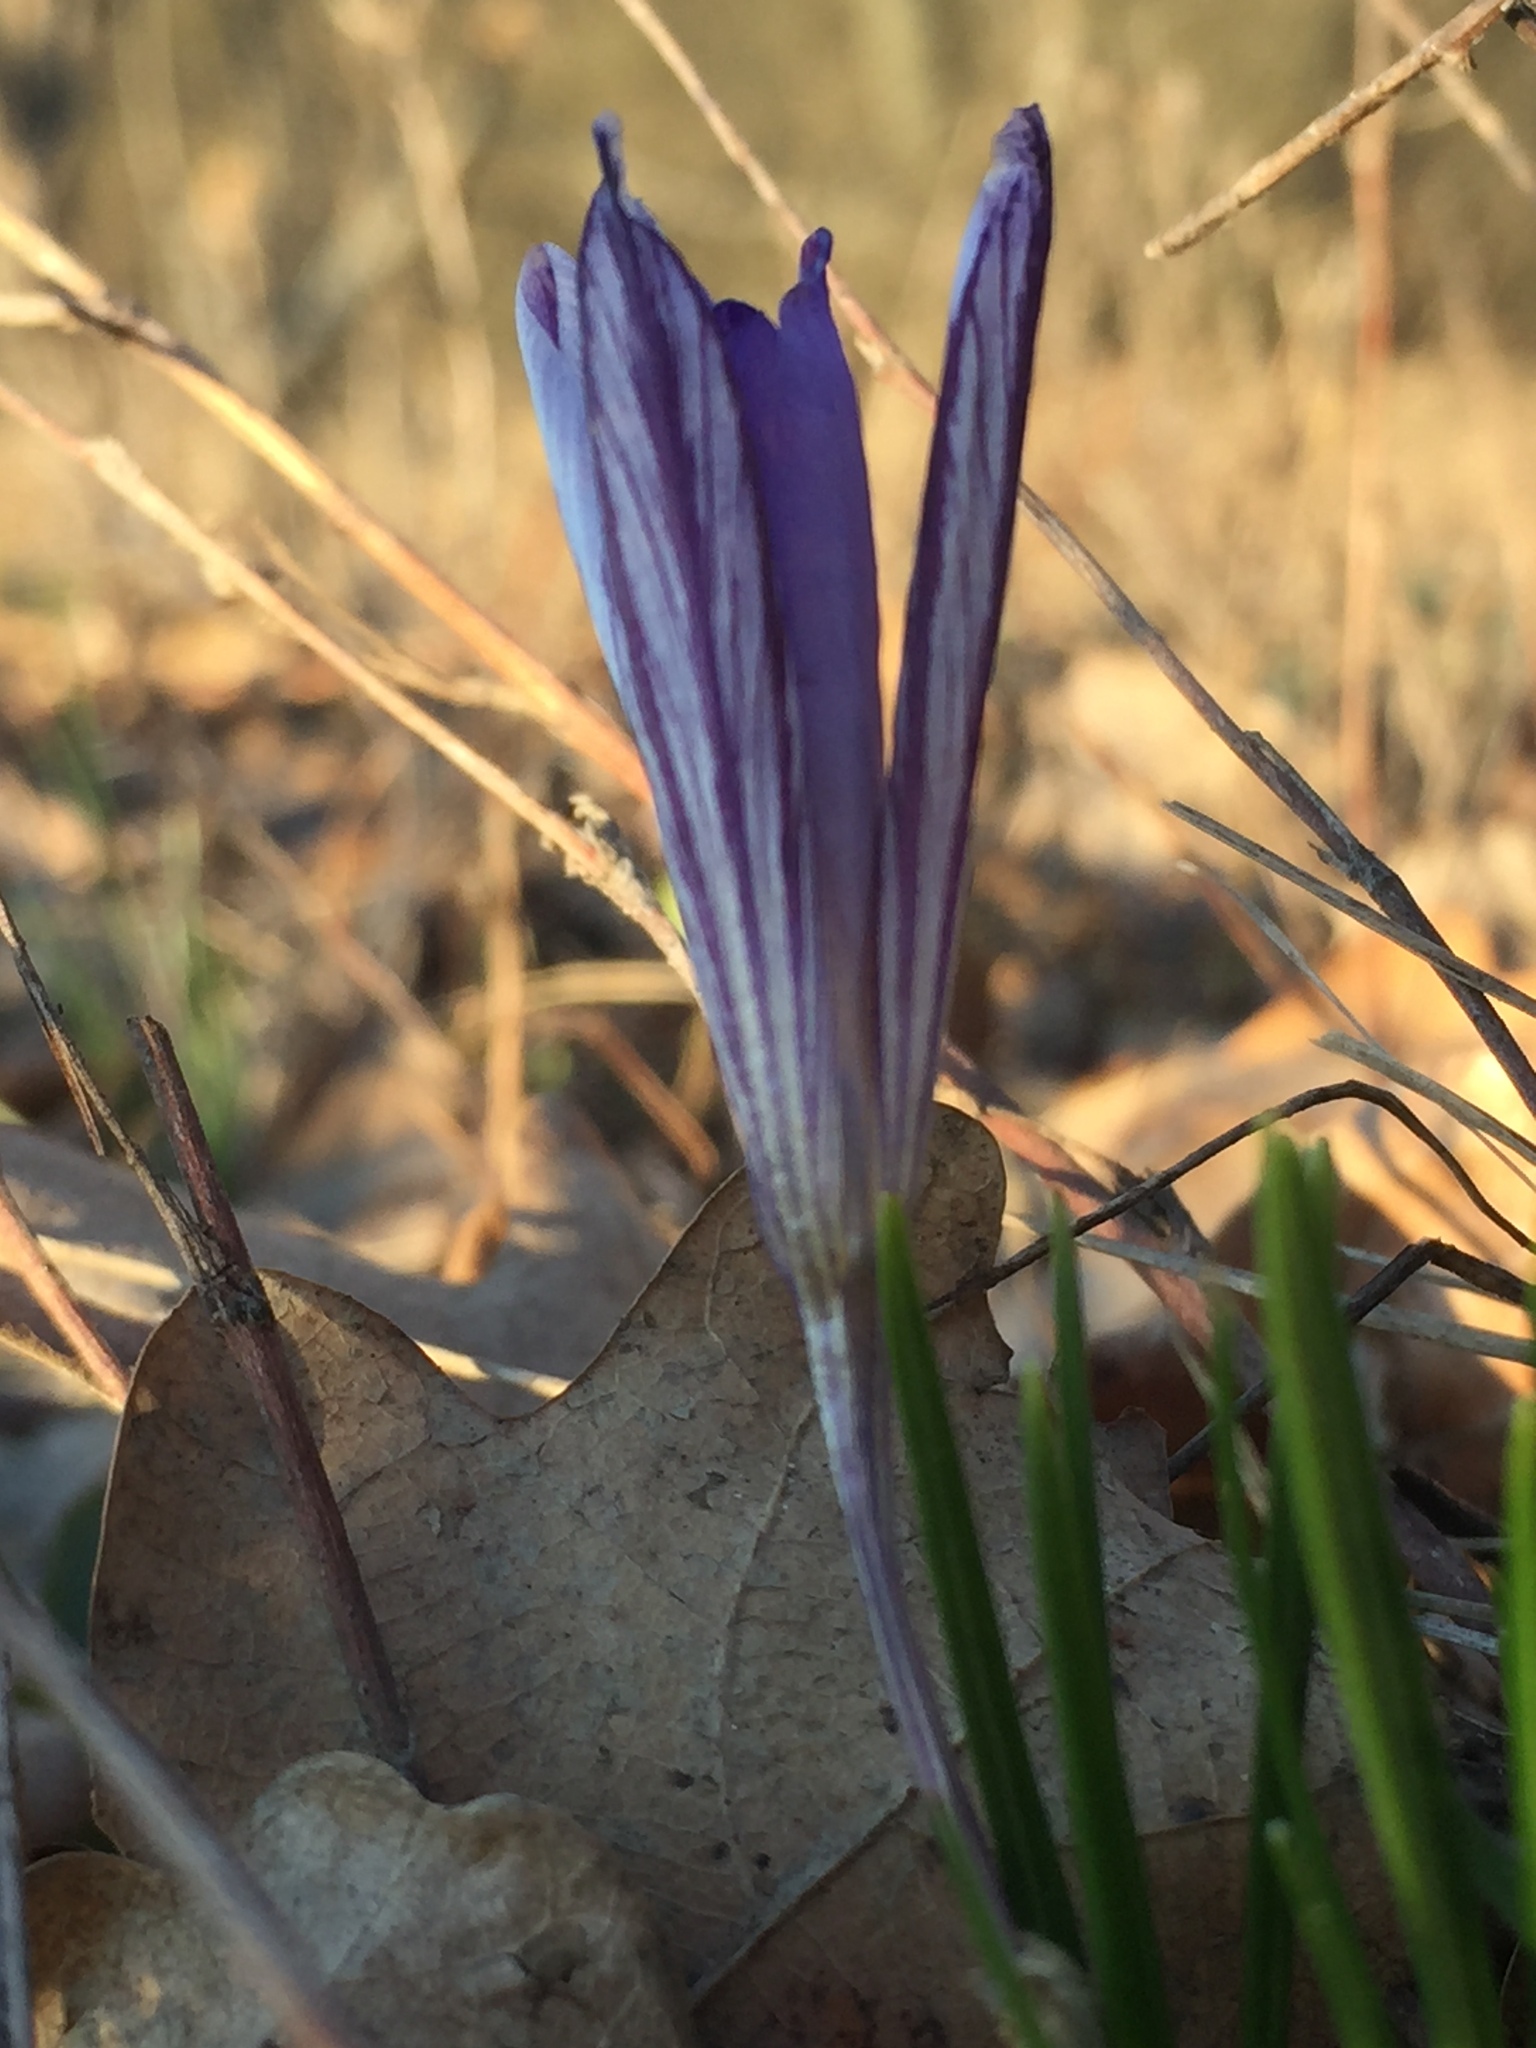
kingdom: Plantae
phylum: Tracheophyta
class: Liliopsida
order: Asparagales
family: Iridaceae
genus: Crocus
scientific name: Crocus reticulatus
